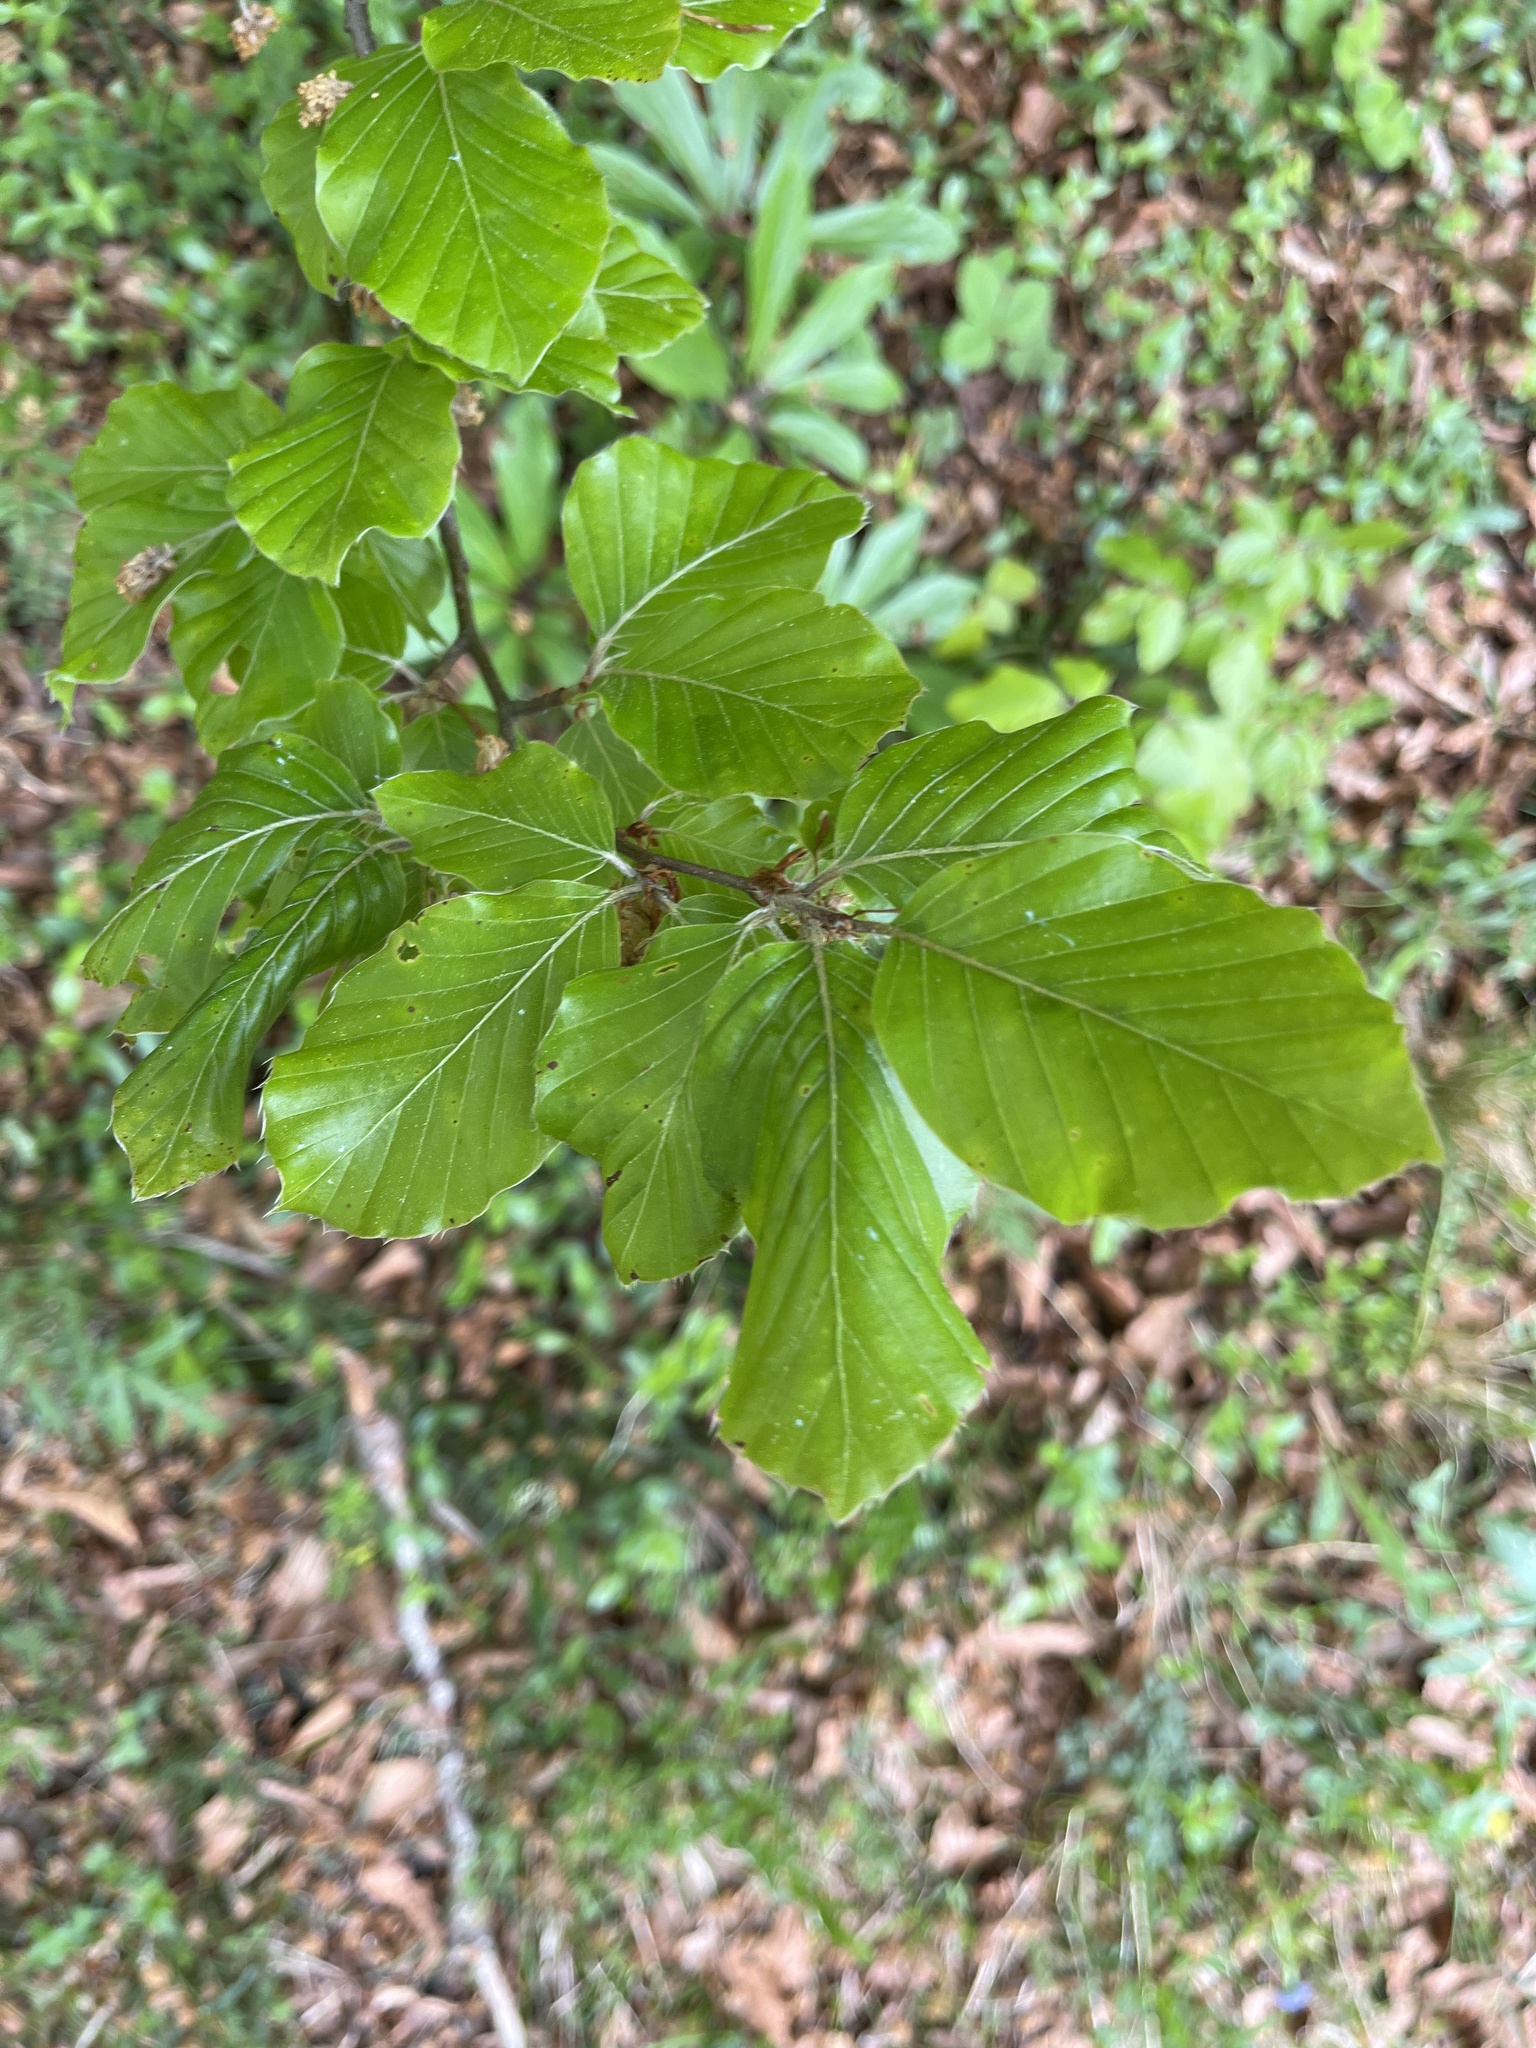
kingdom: Plantae
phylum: Tracheophyta
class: Magnoliopsida
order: Fagales
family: Fagaceae
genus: Fagus
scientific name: Fagus sylvatica
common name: Beech
